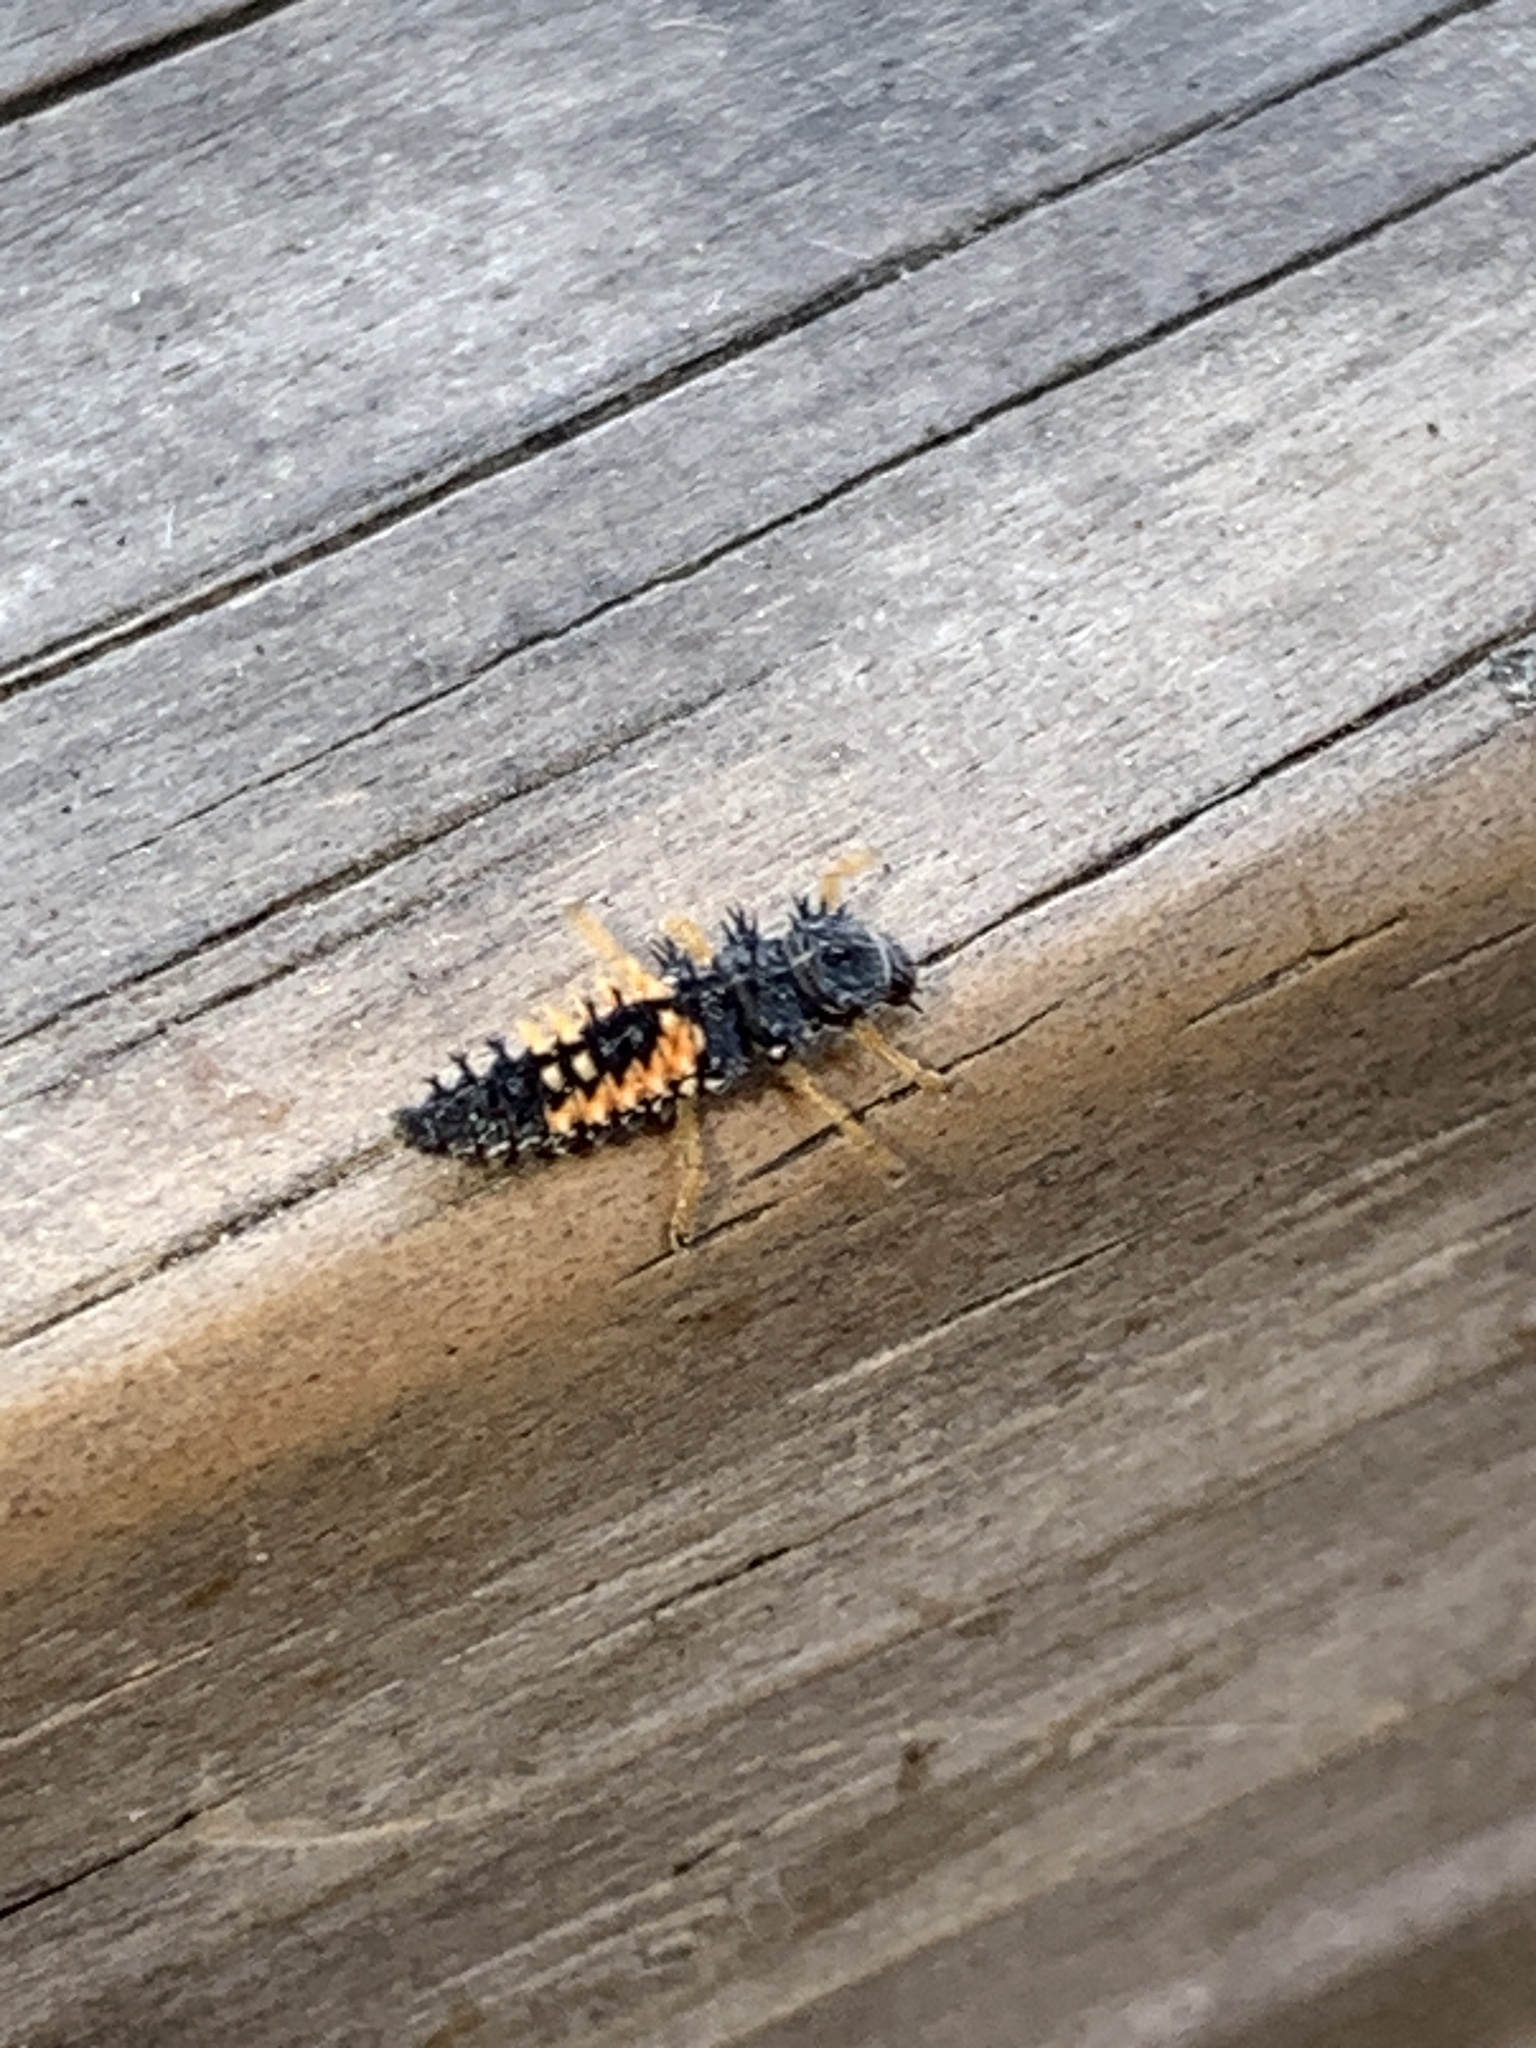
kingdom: Animalia
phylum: Arthropoda
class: Insecta
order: Coleoptera
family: Coccinellidae
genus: Harmonia
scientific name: Harmonia axyridis
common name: Harlequin ladybird
